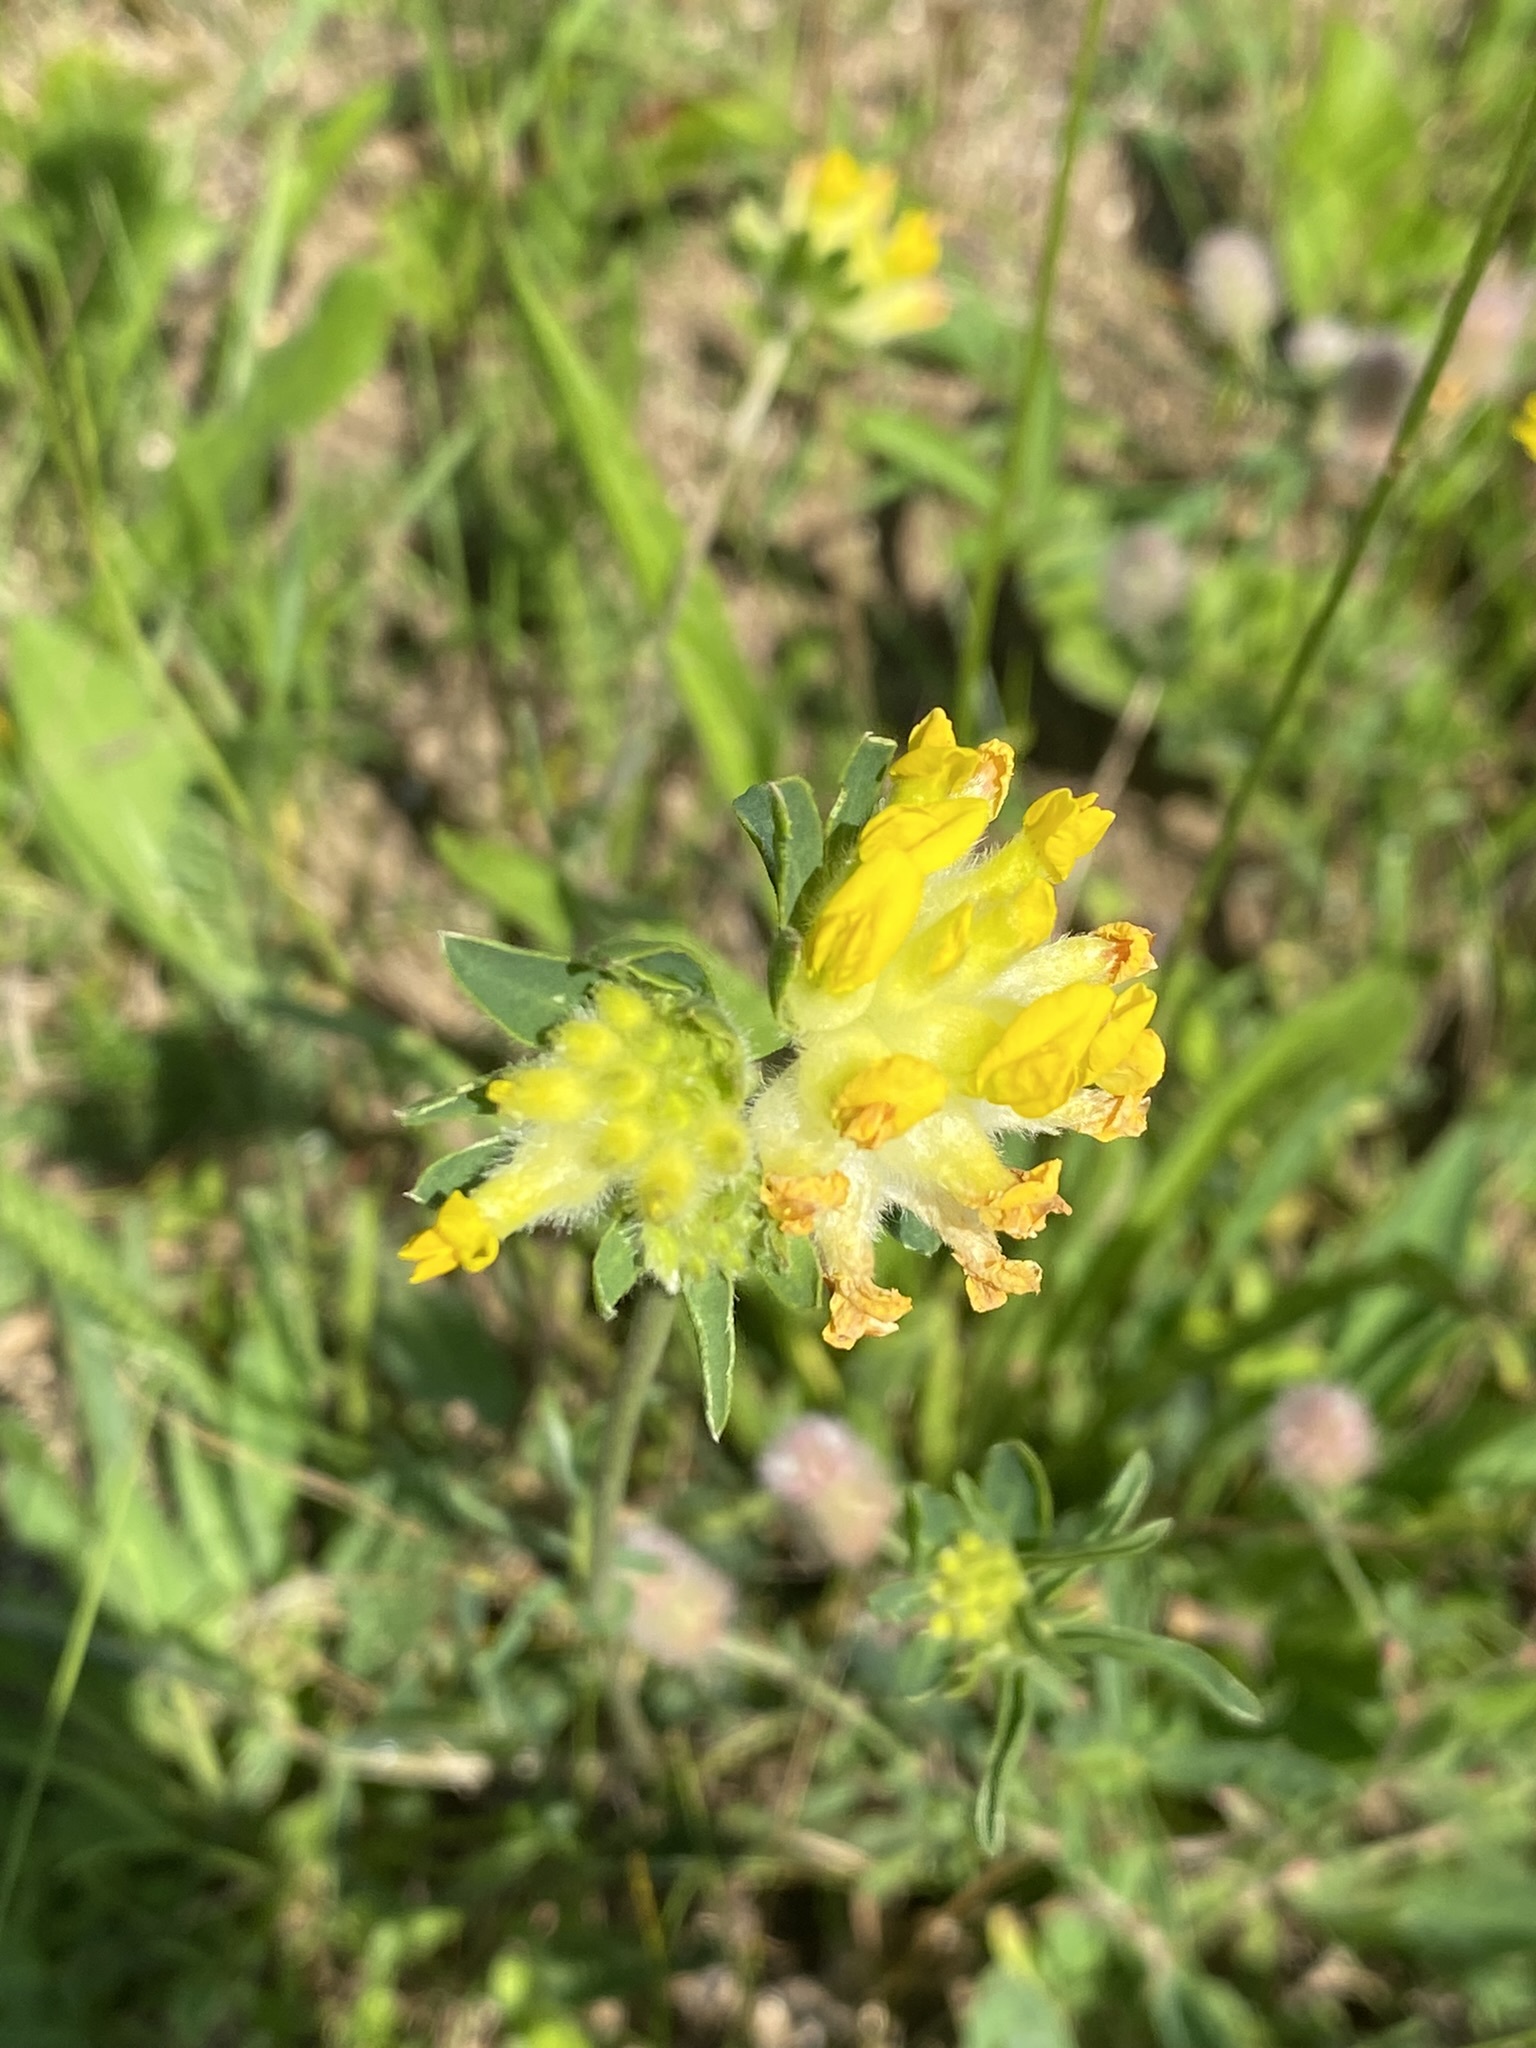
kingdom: Plantae
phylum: Tracheophyta
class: Magnoliopsida
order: Fabales
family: Fabaceae
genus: Anthyllis
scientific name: Anthyllis vulneraria
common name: Kidney vetch
